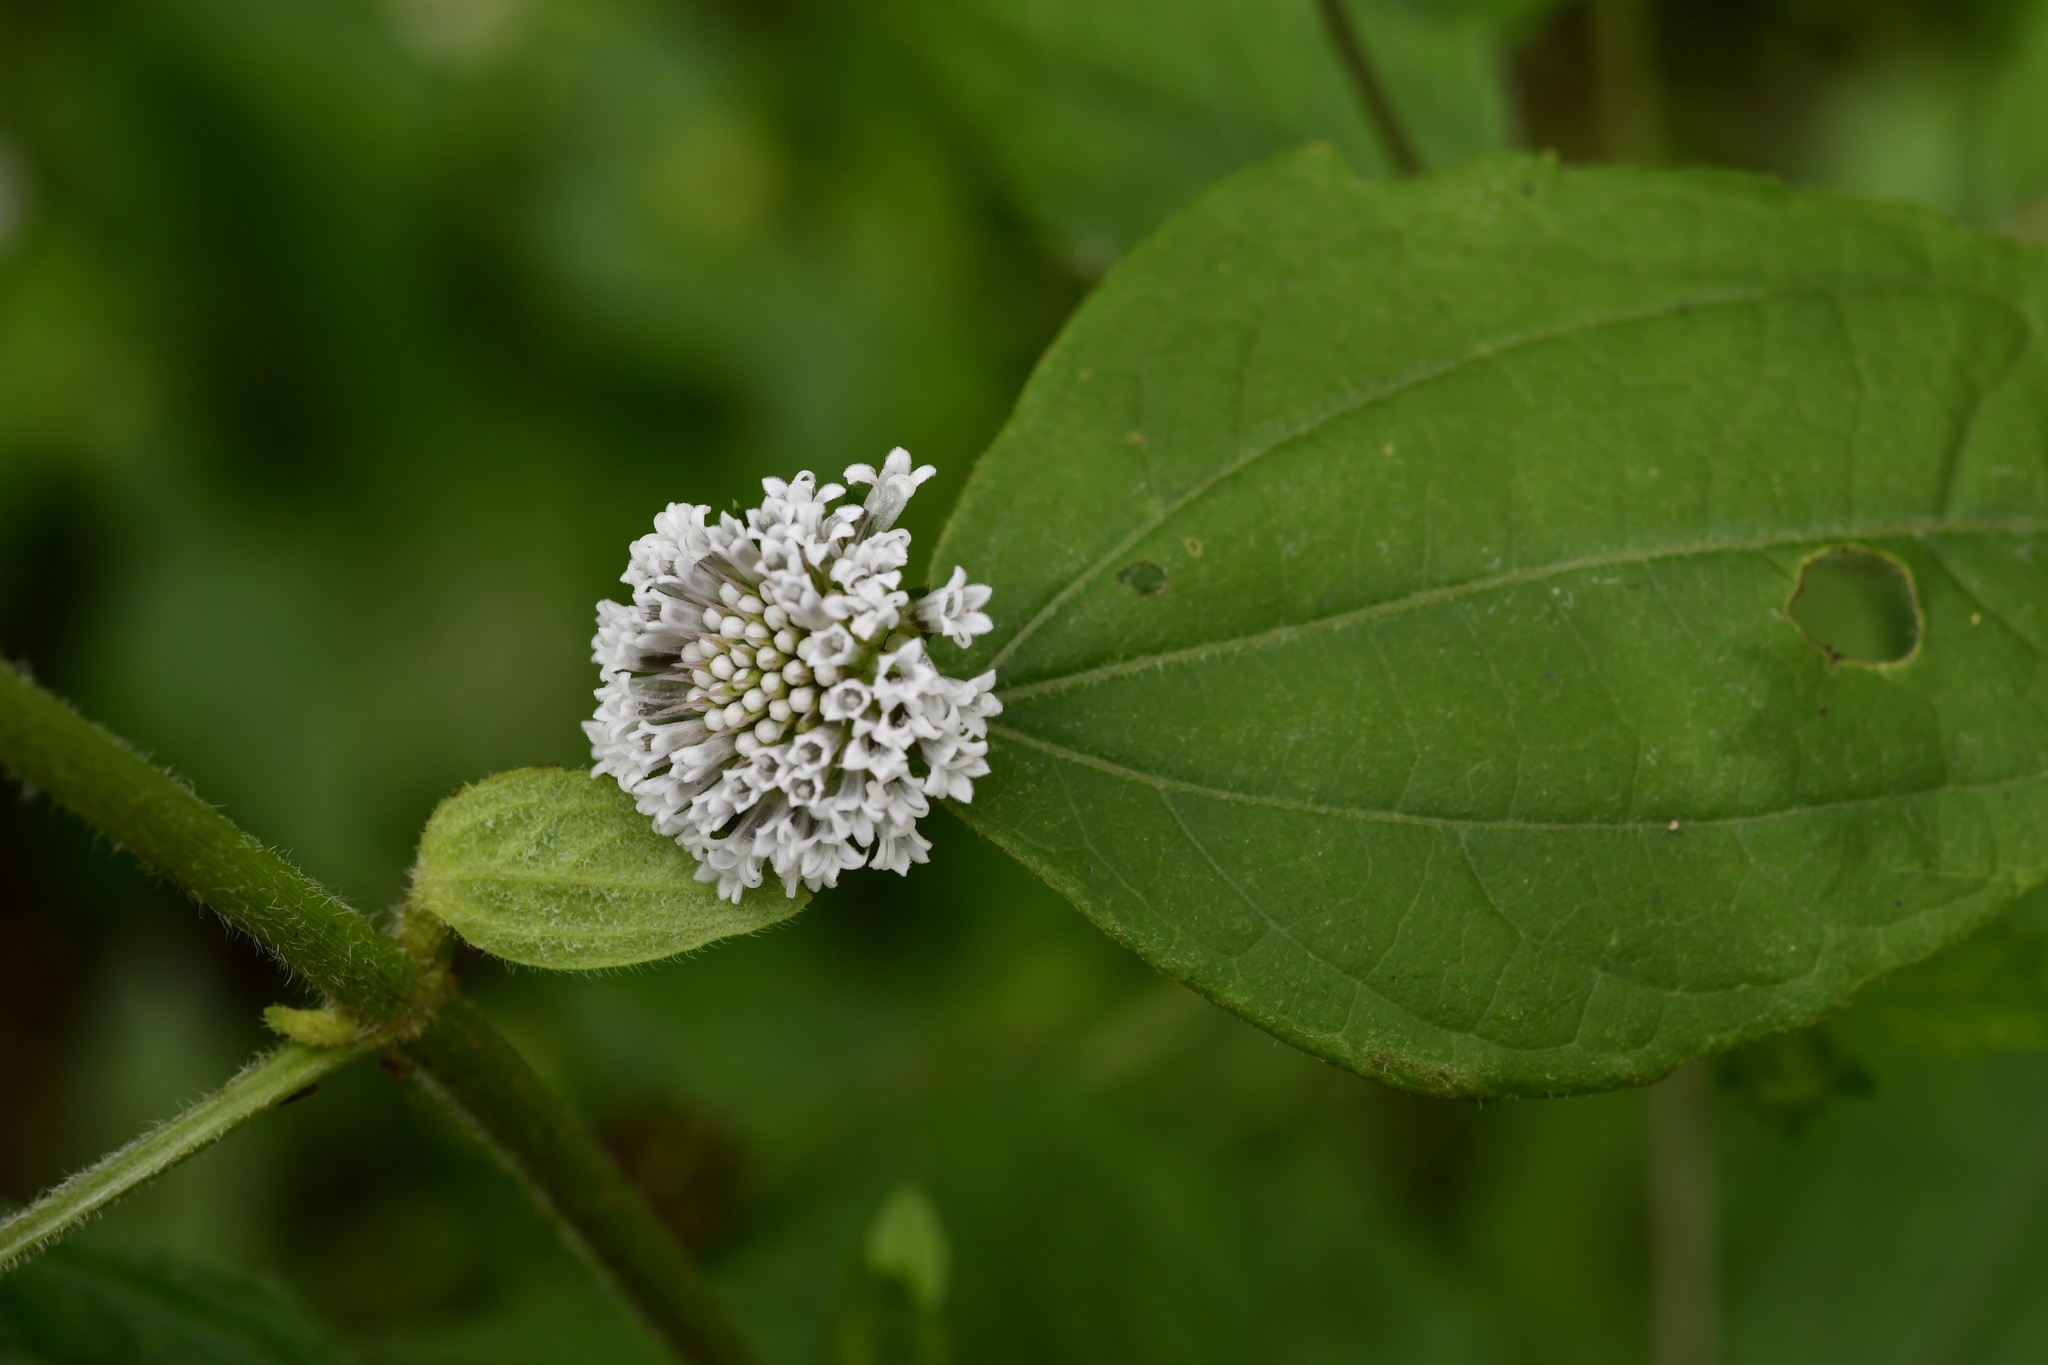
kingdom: Plantae
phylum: Tracheophyta
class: Magnoliopsida
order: Asterales
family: Asteraceae
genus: Melanthera
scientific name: Melanthera nivea
